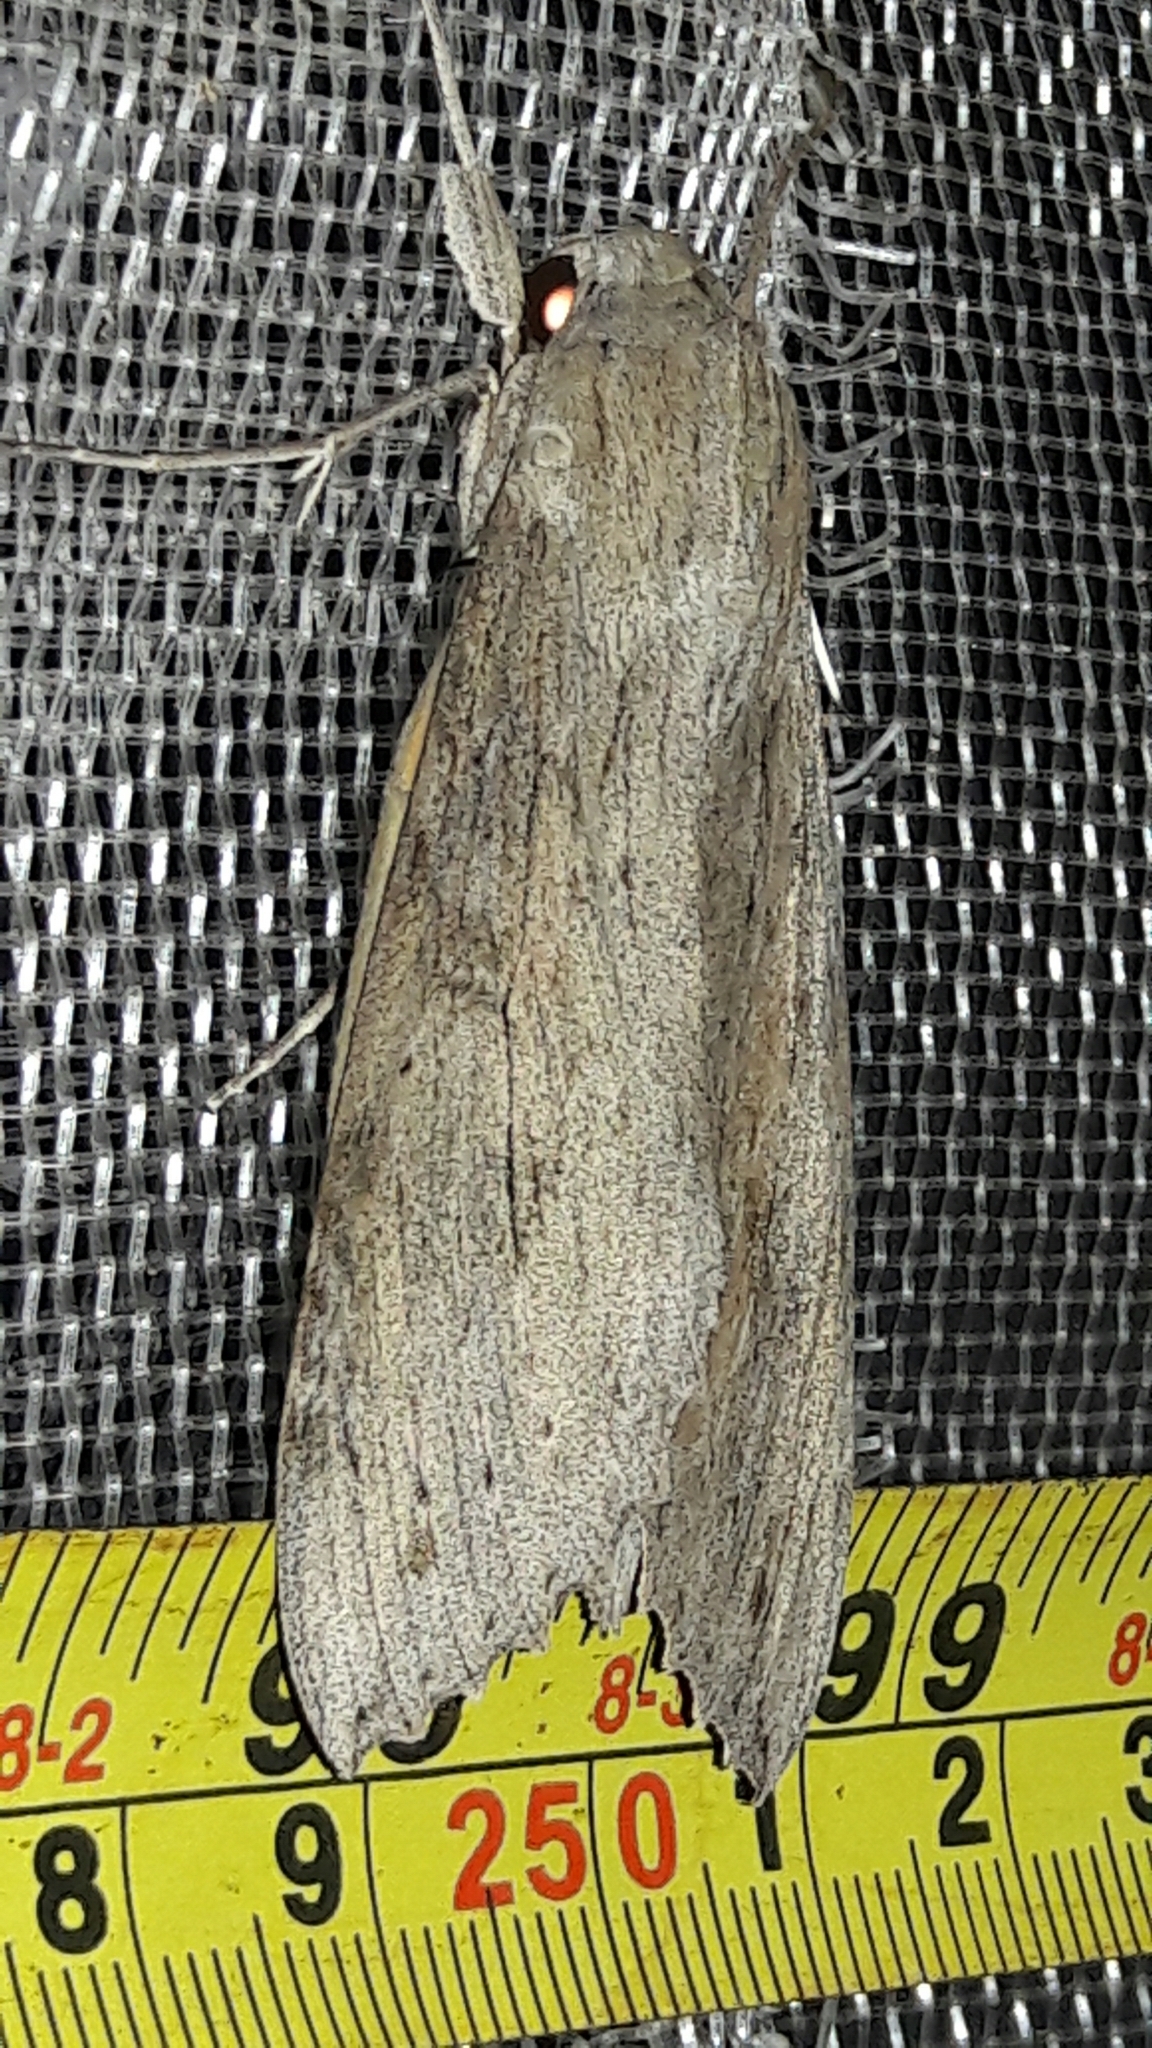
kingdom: Animalia
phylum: Arthropoda
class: Insecta
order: Lepidoptera
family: Sphingidae
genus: Erinnyis
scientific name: Erinnyis ello
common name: Ello sphinx
